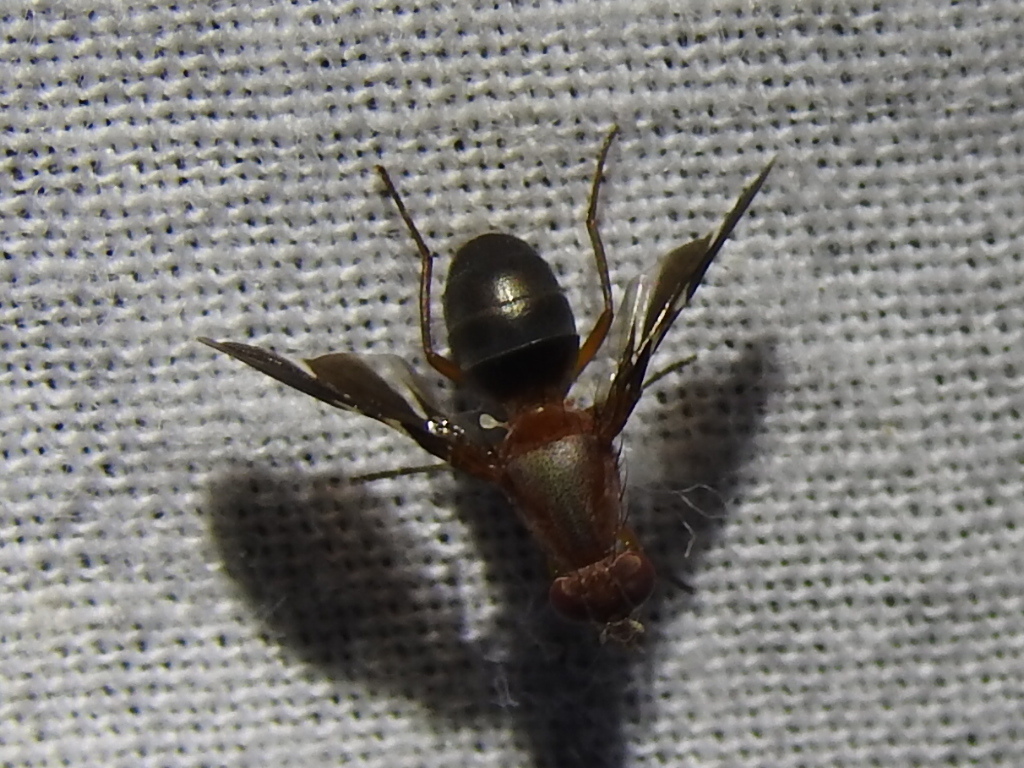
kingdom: Animalia
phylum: Arthropoda
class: Insecta
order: Diptera
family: Ulidiidae
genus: Delphinia
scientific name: Delphinia picta
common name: Common picture-winged fly
